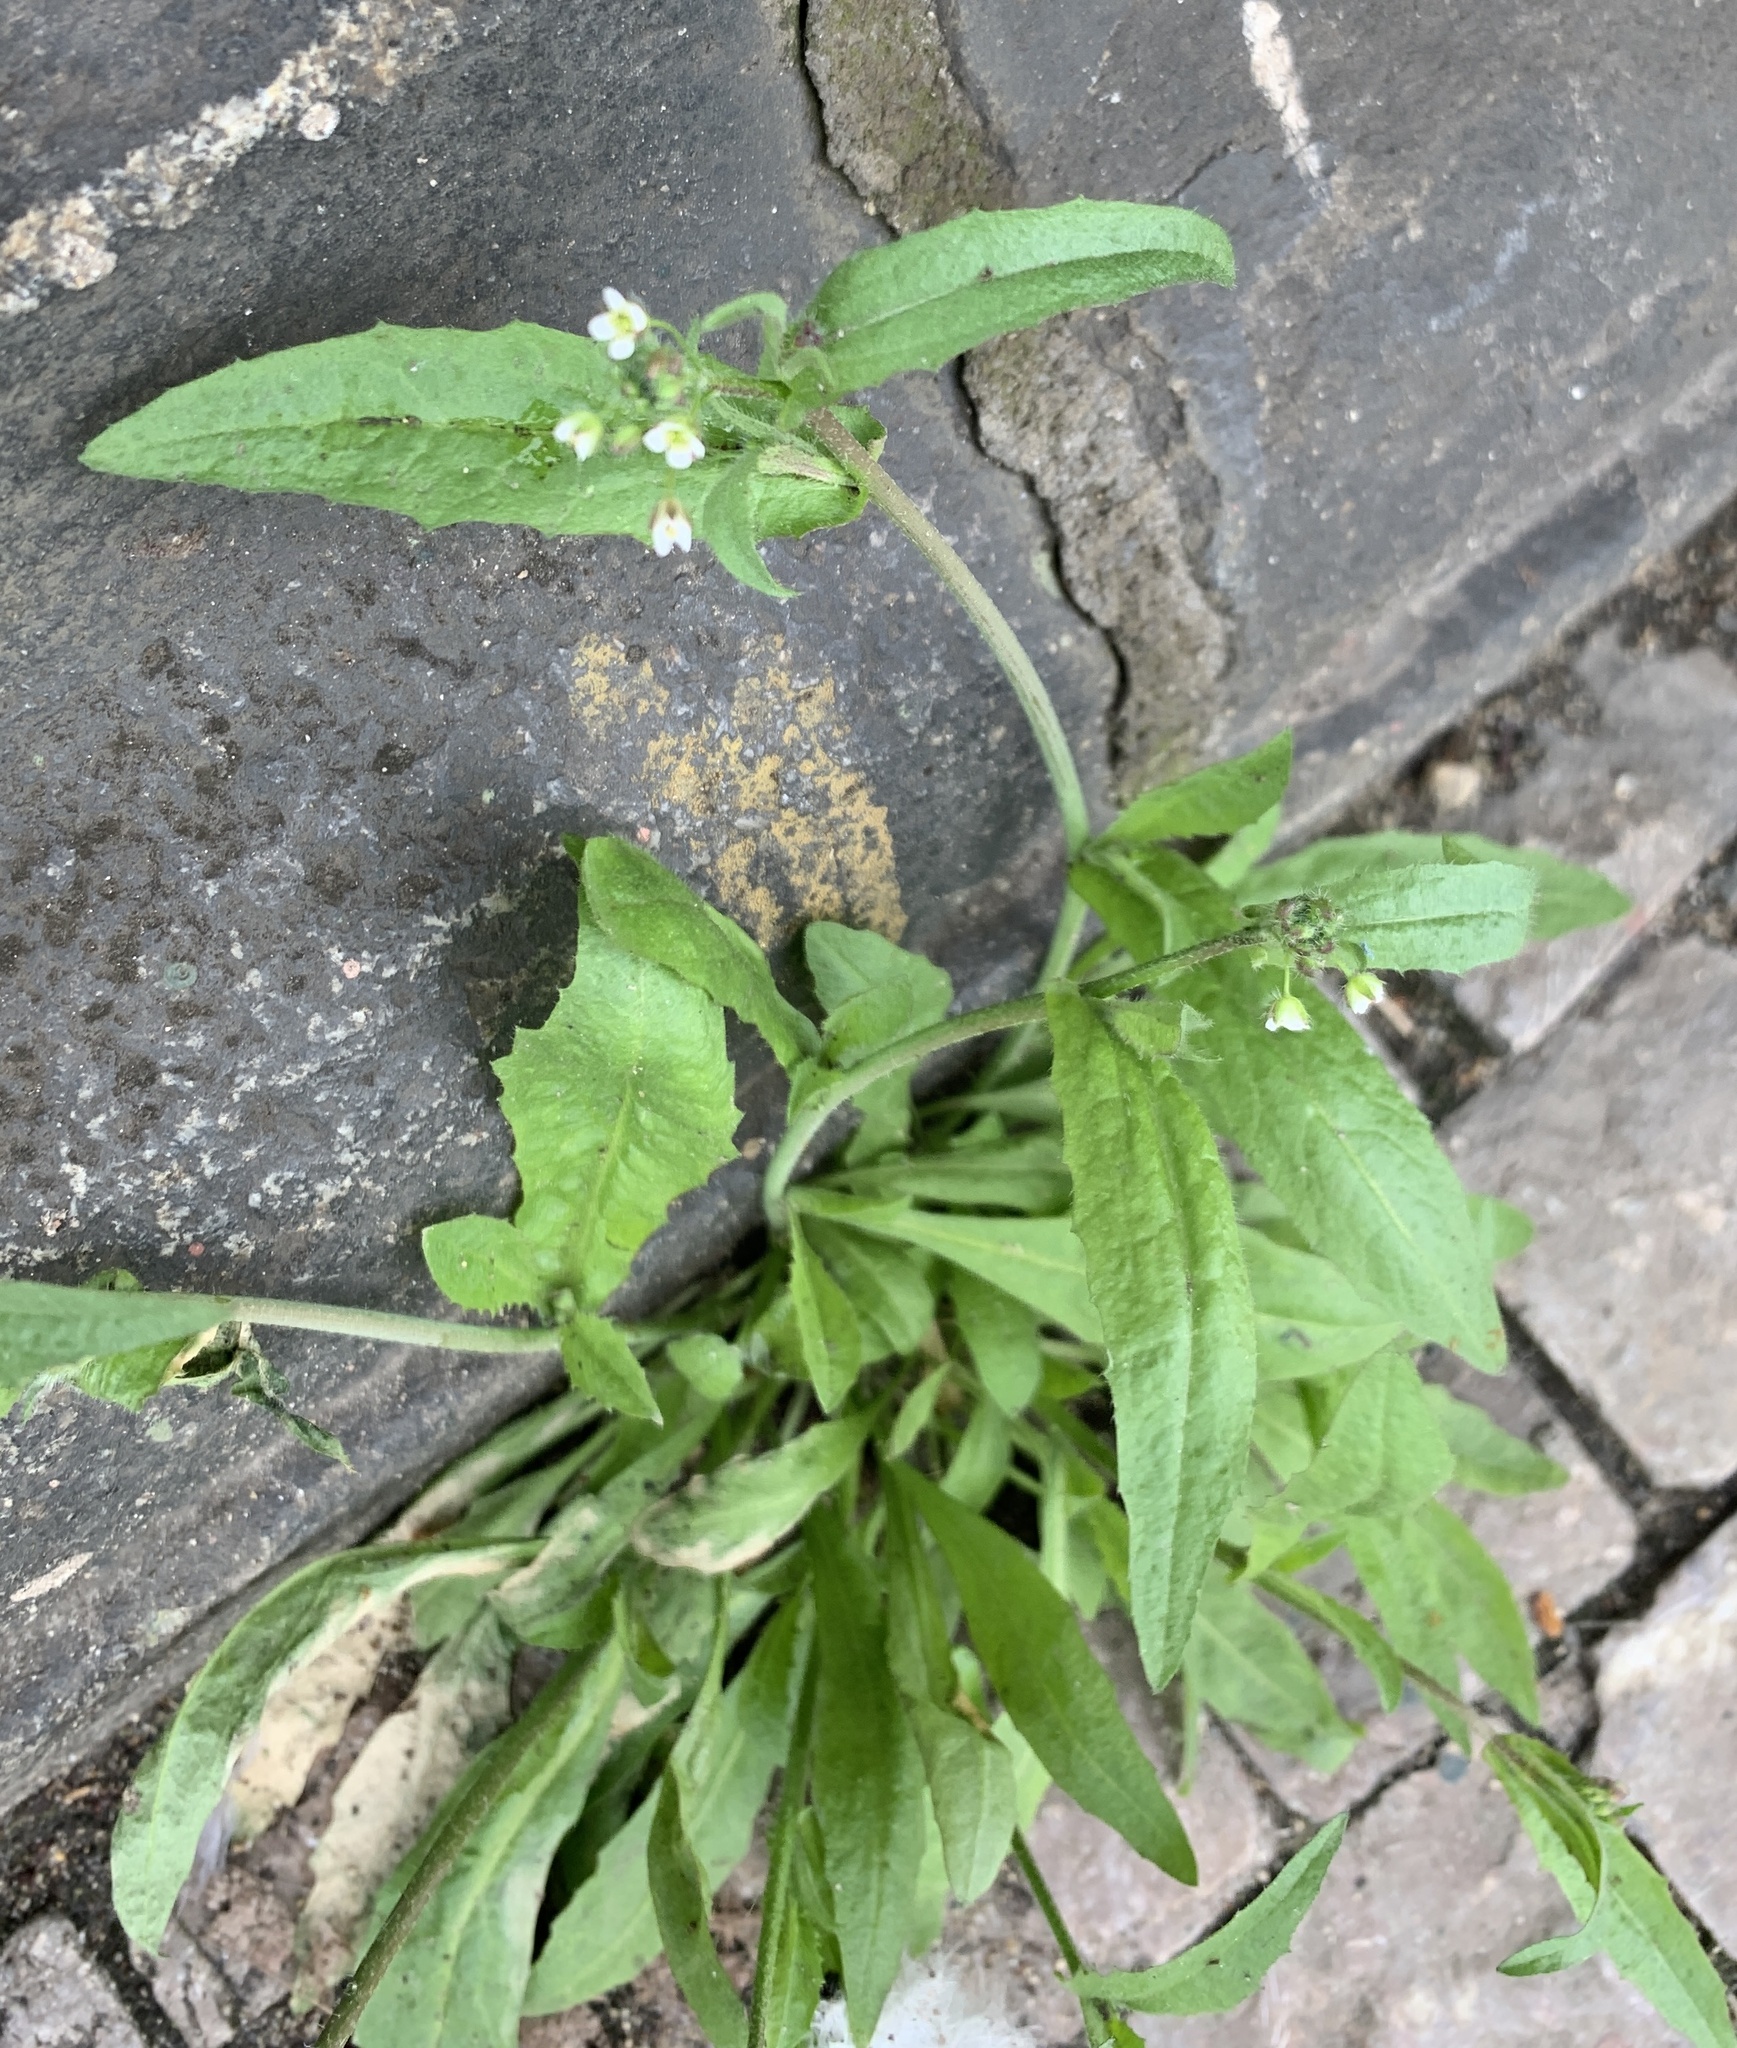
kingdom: Plantae
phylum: Tracheophyta
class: Magnoliopsida
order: Brassicales
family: Brassicaceae
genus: Capsella
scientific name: Capsella bursa-pastoris
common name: Shepherd's purse
